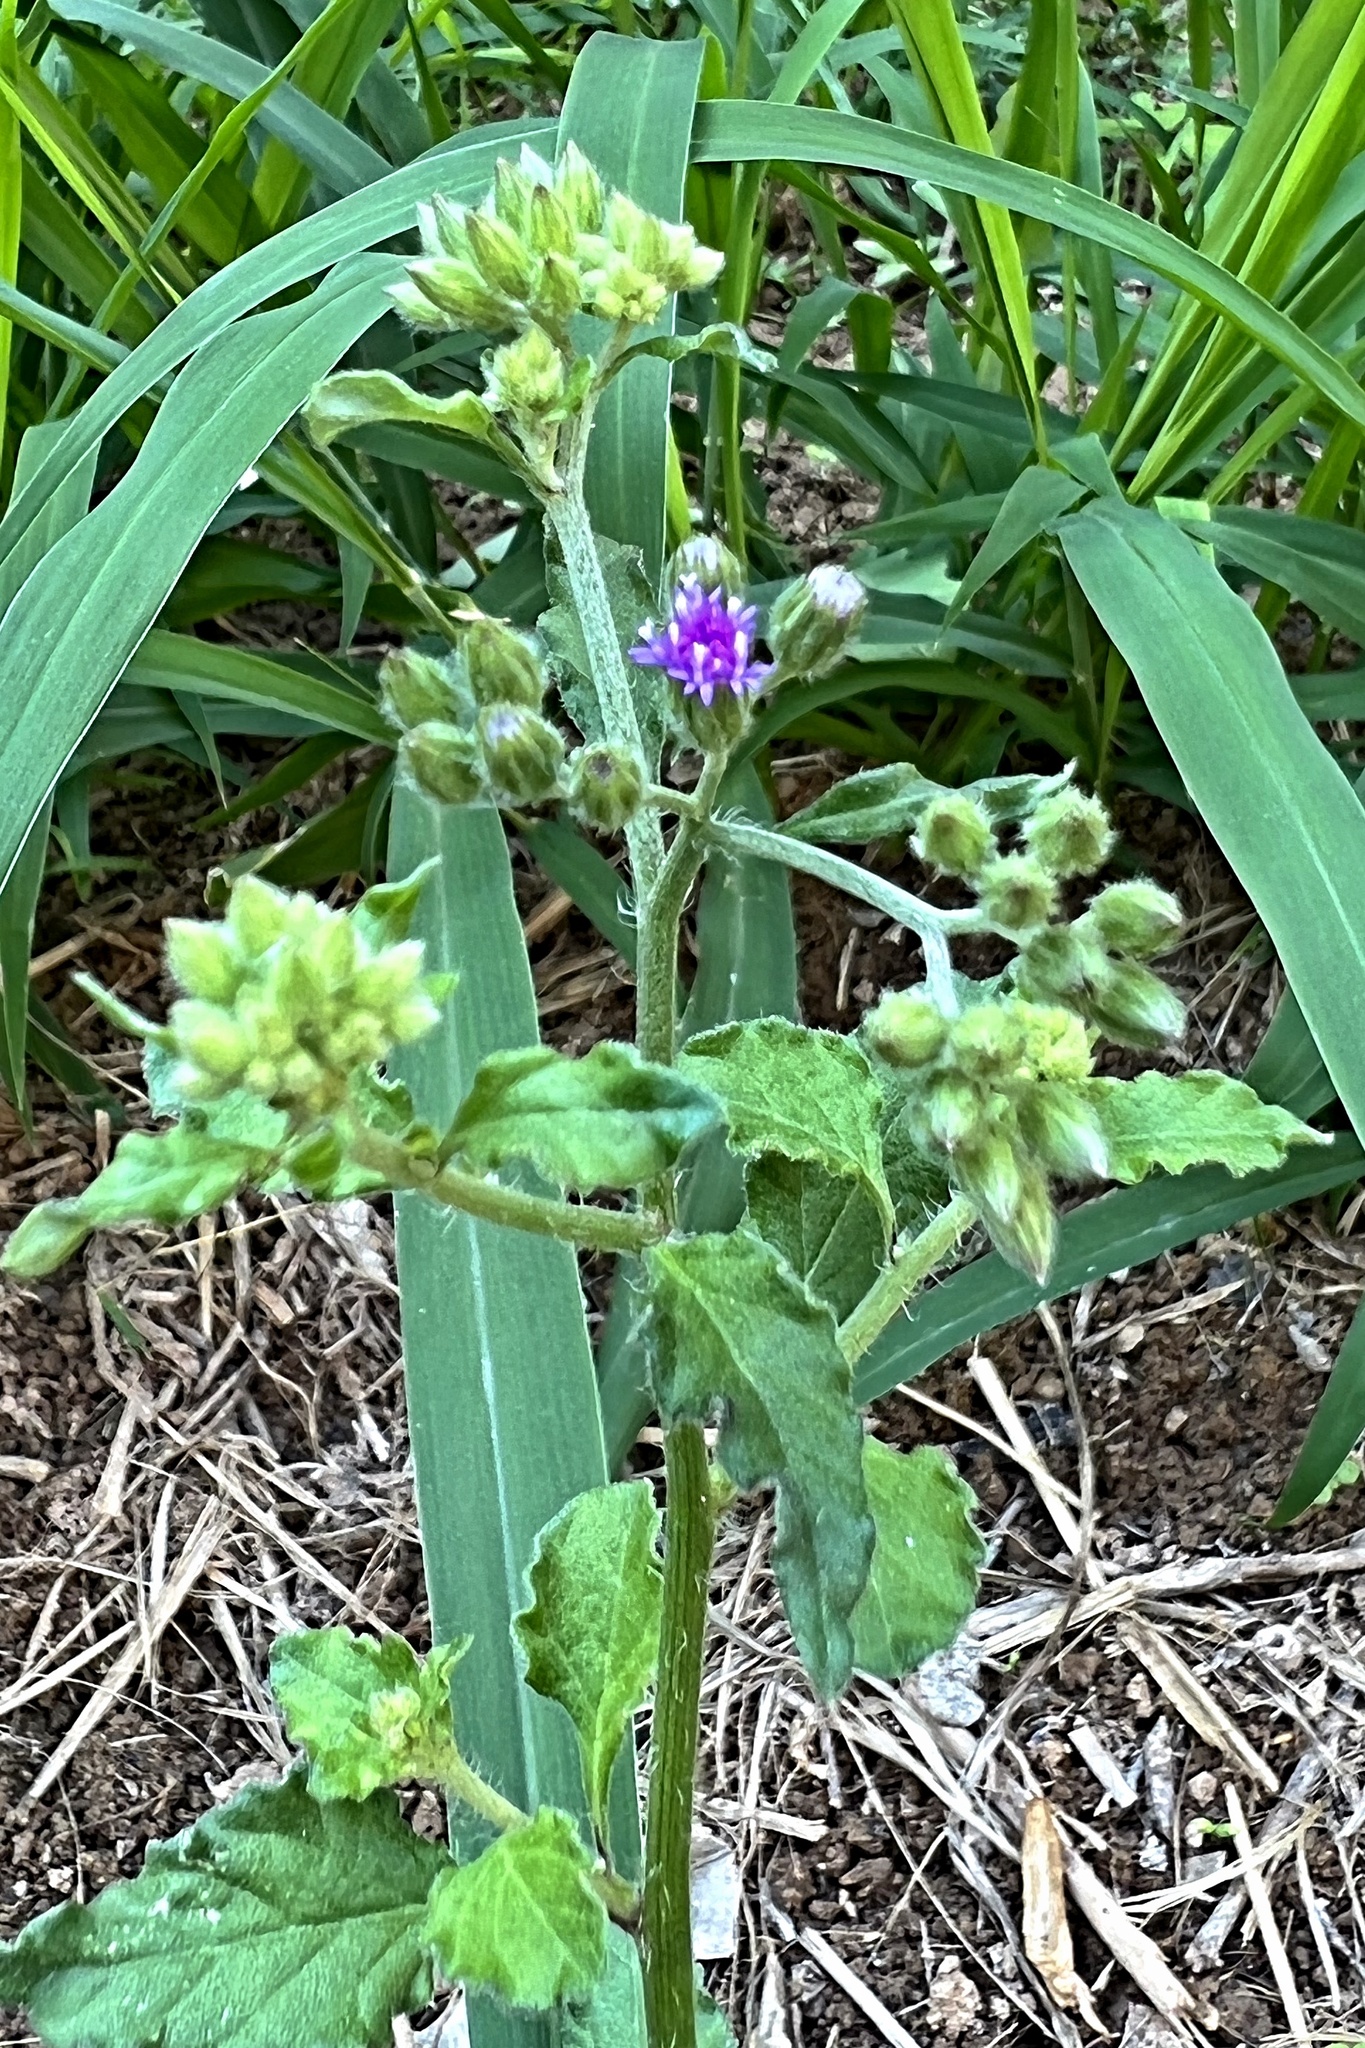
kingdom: Plantae
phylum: Tracheophyta
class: Magnoliopsida
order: Asterales
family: Asteraceae
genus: Cyanthillium
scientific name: Cyanthillium cinereum
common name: Little ironweed
